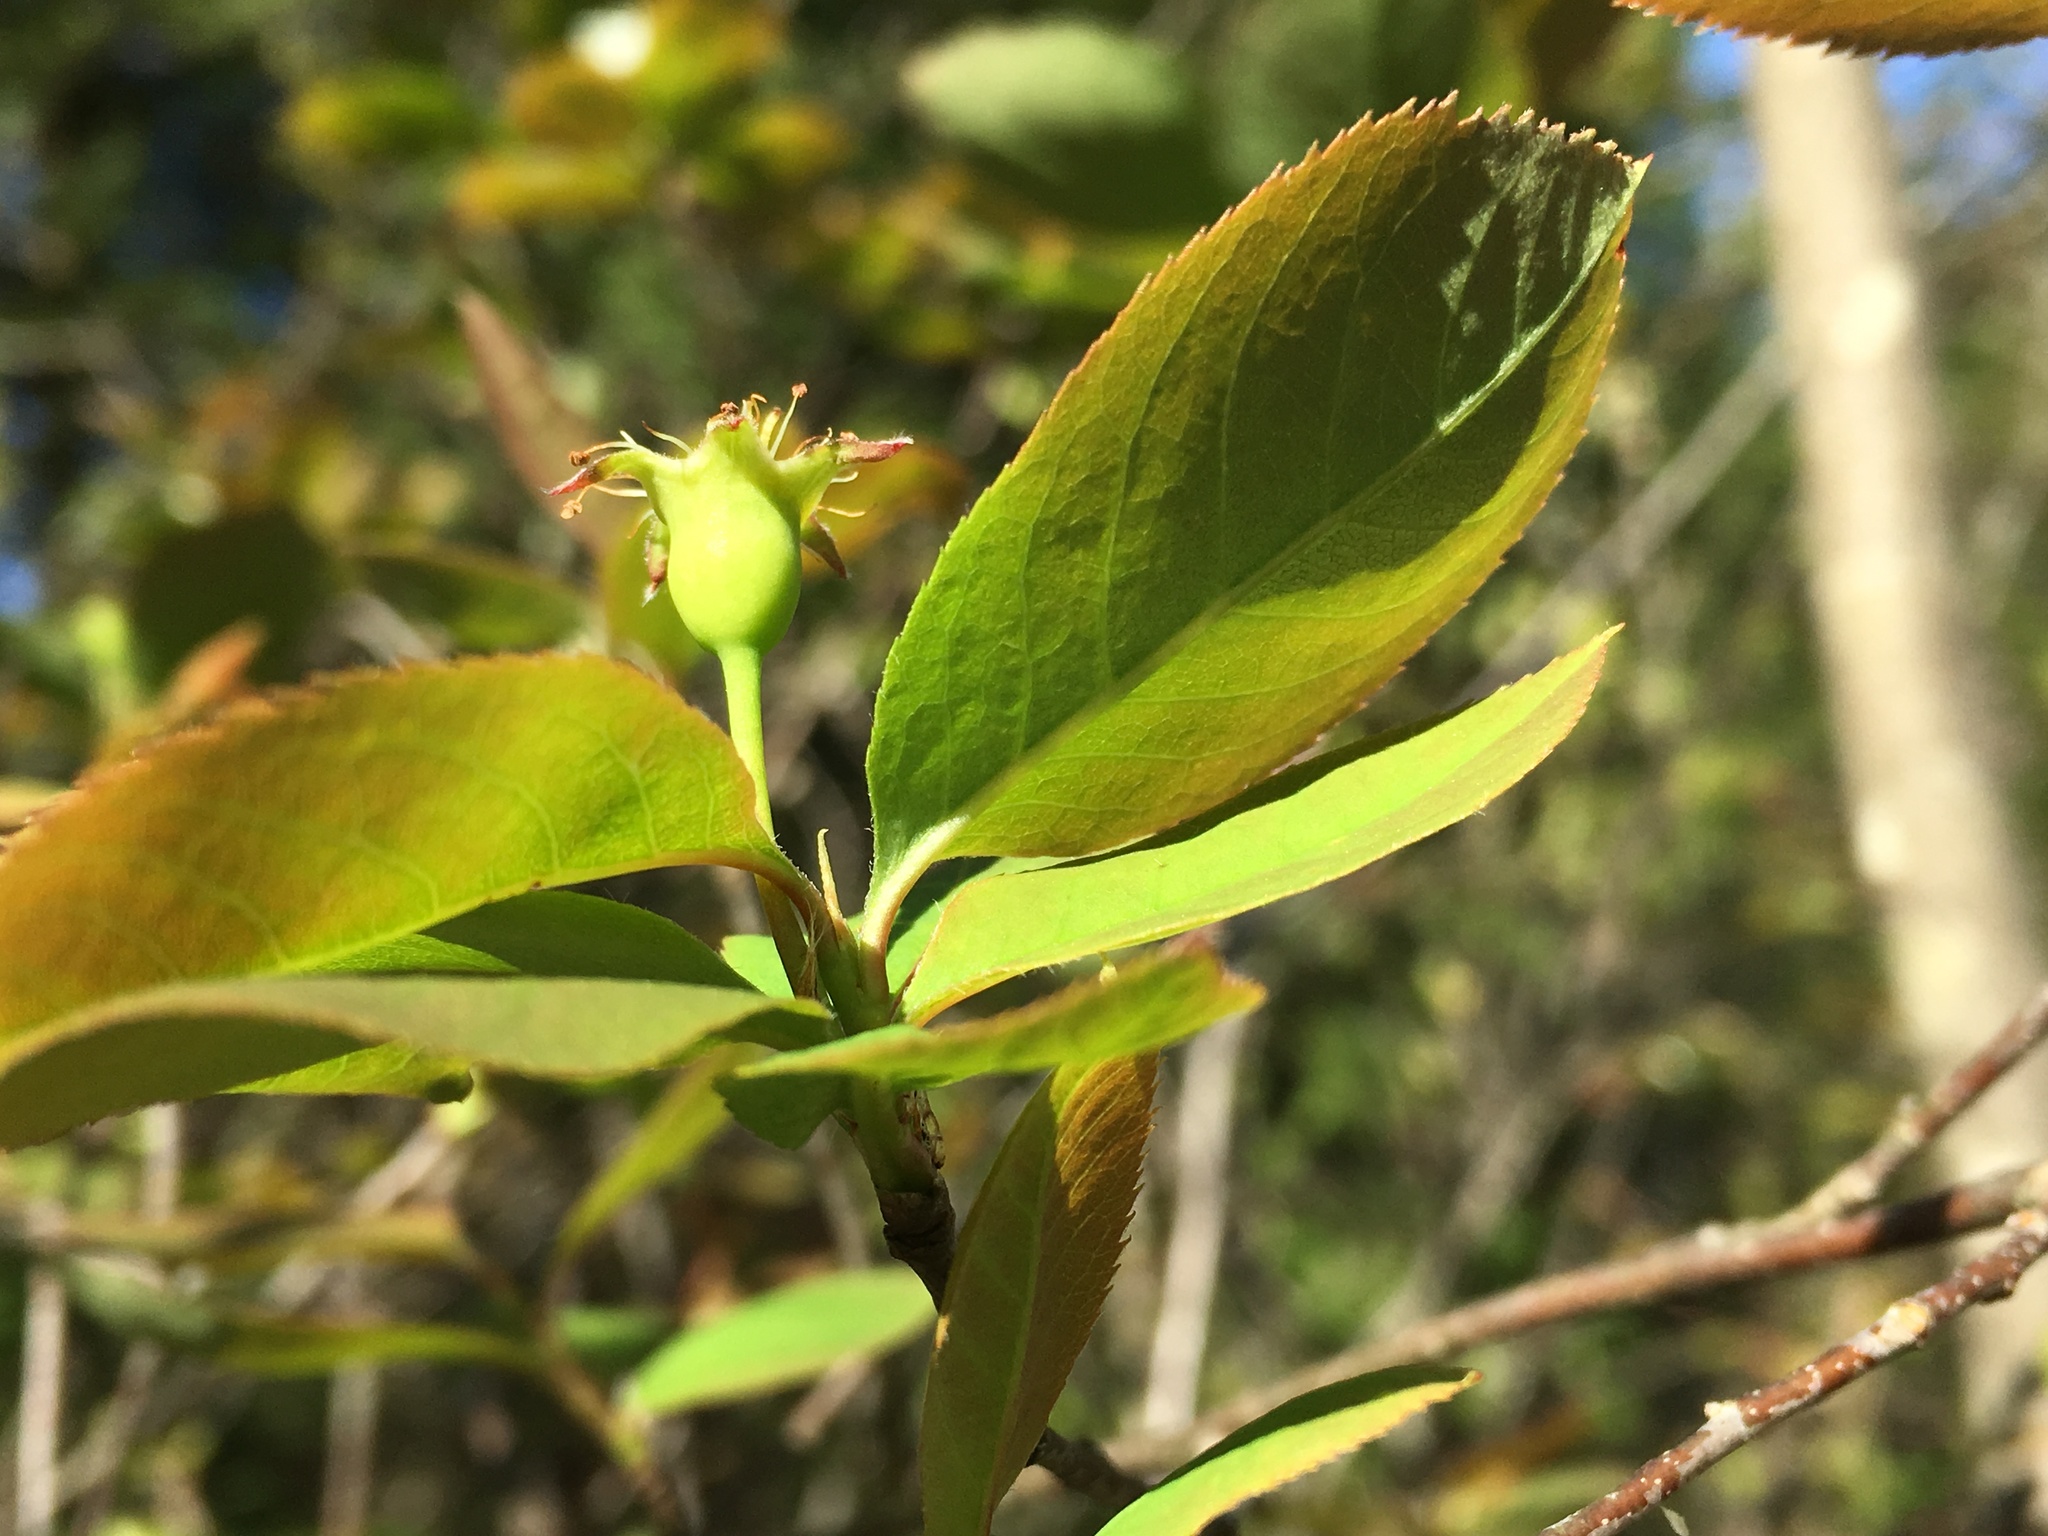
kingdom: Plantae
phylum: Tracheophyta
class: Magnoliopsida
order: Rosales
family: Rosaceae
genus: Amelanchier
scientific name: Amelanchier bartramiana
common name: Mountain serviceberry
